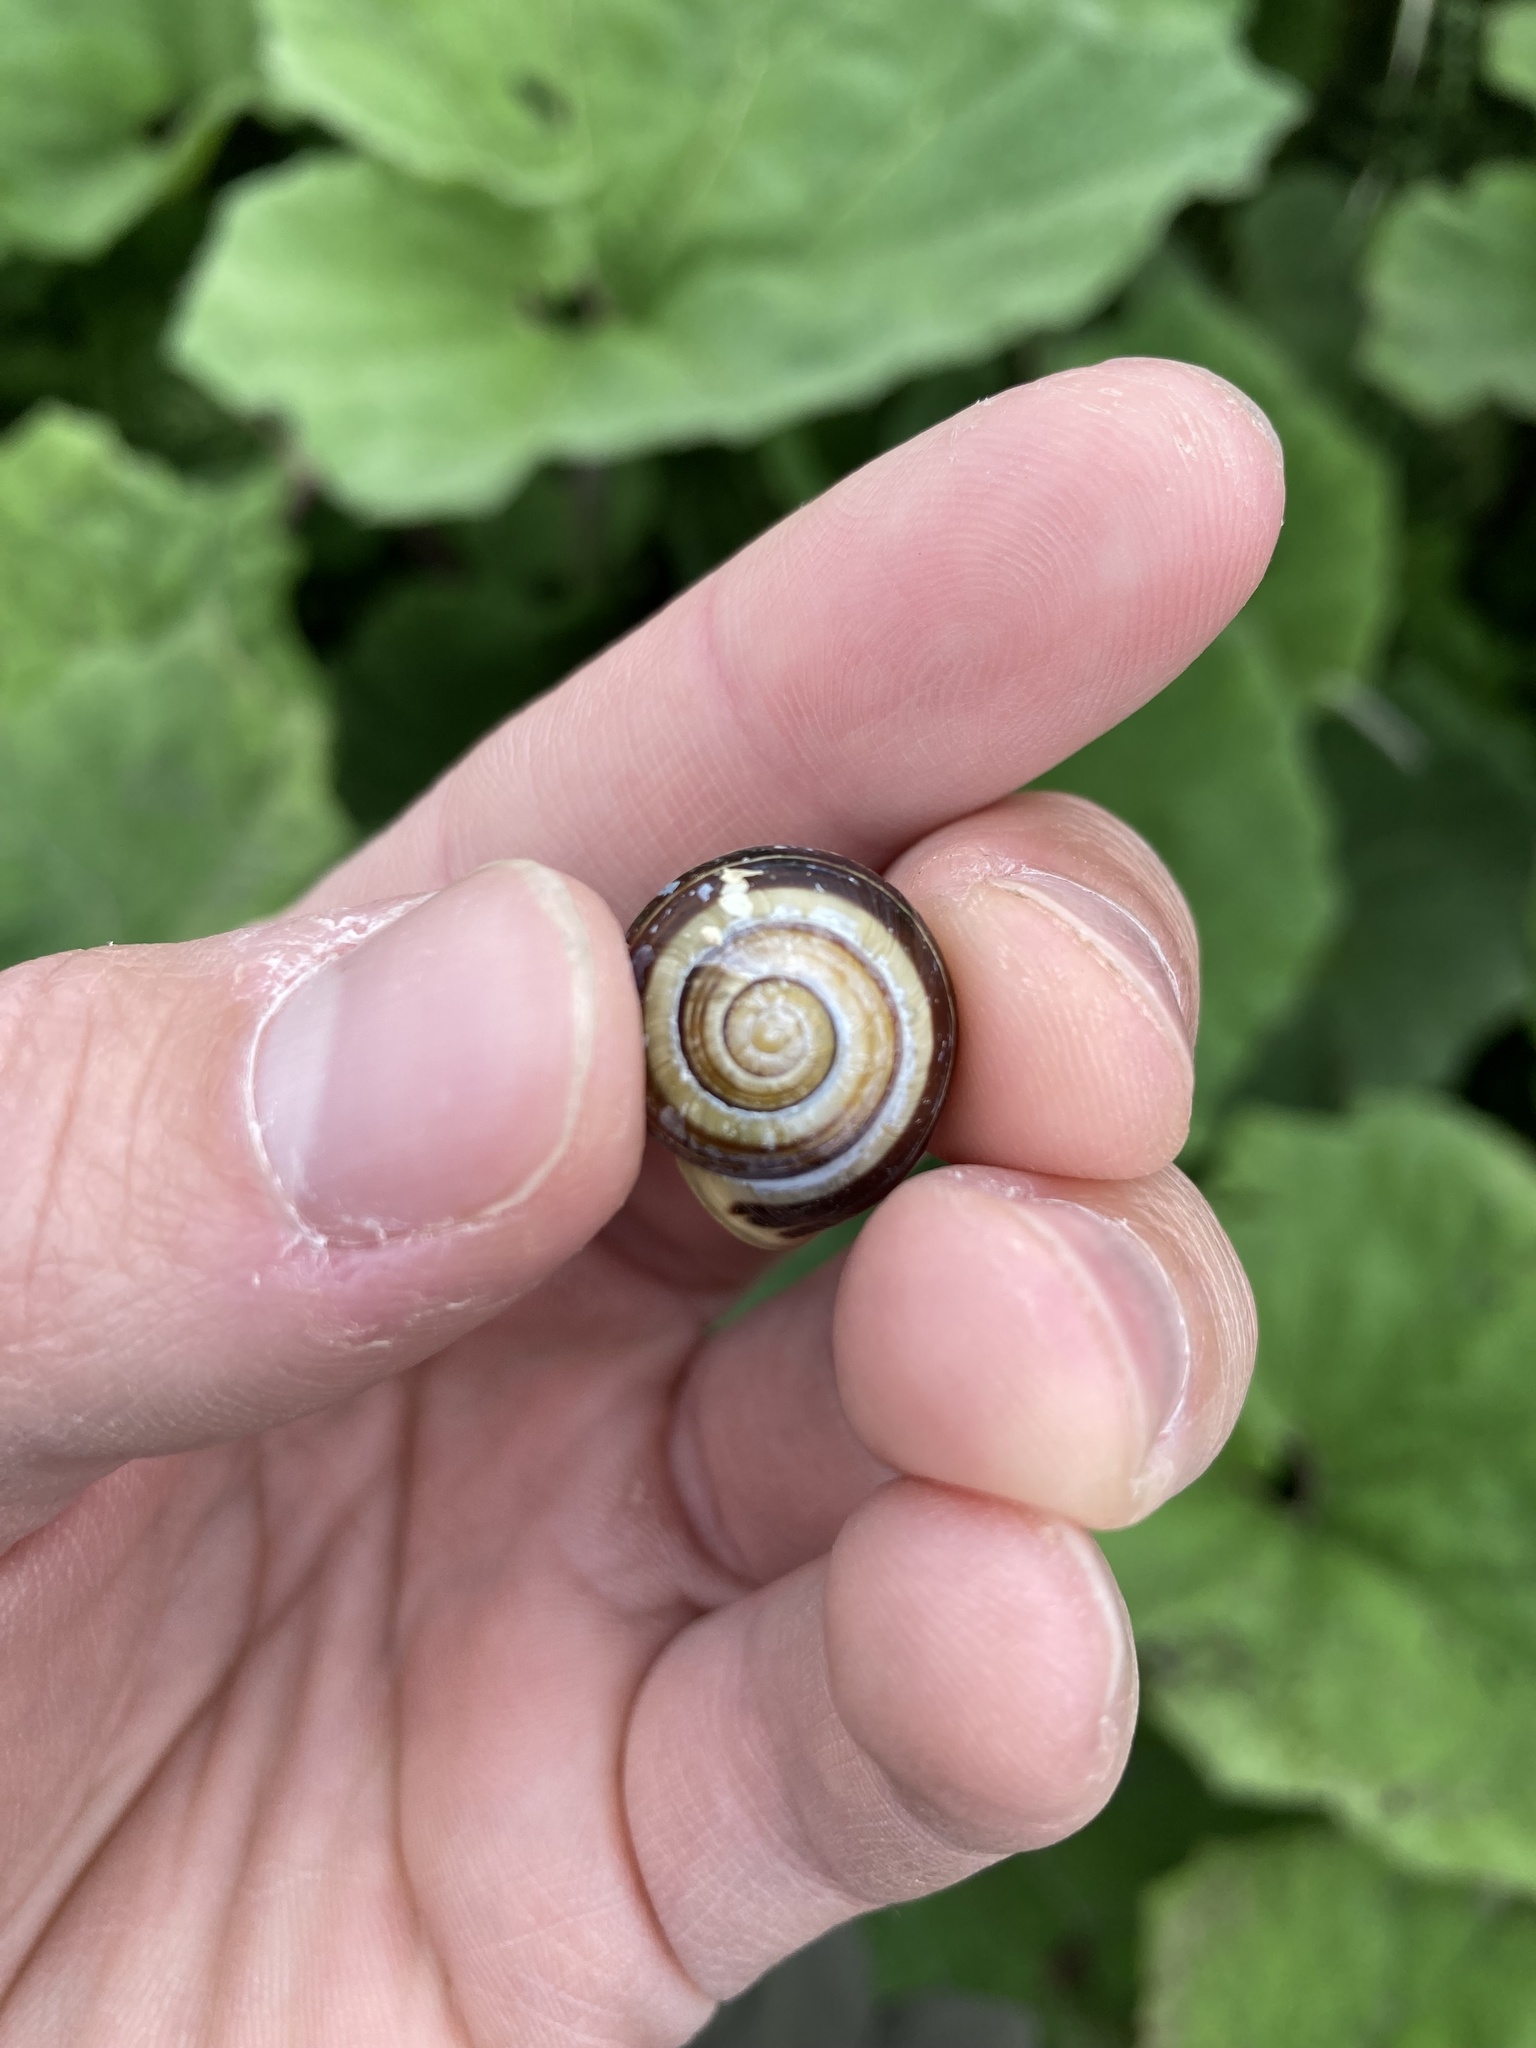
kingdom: Animalia
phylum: Mollusca
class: Gastropoda
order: Stylommatophora
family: Helicidae
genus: Cepaea
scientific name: Cepaea hortensis
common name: White-lip gardensnail
